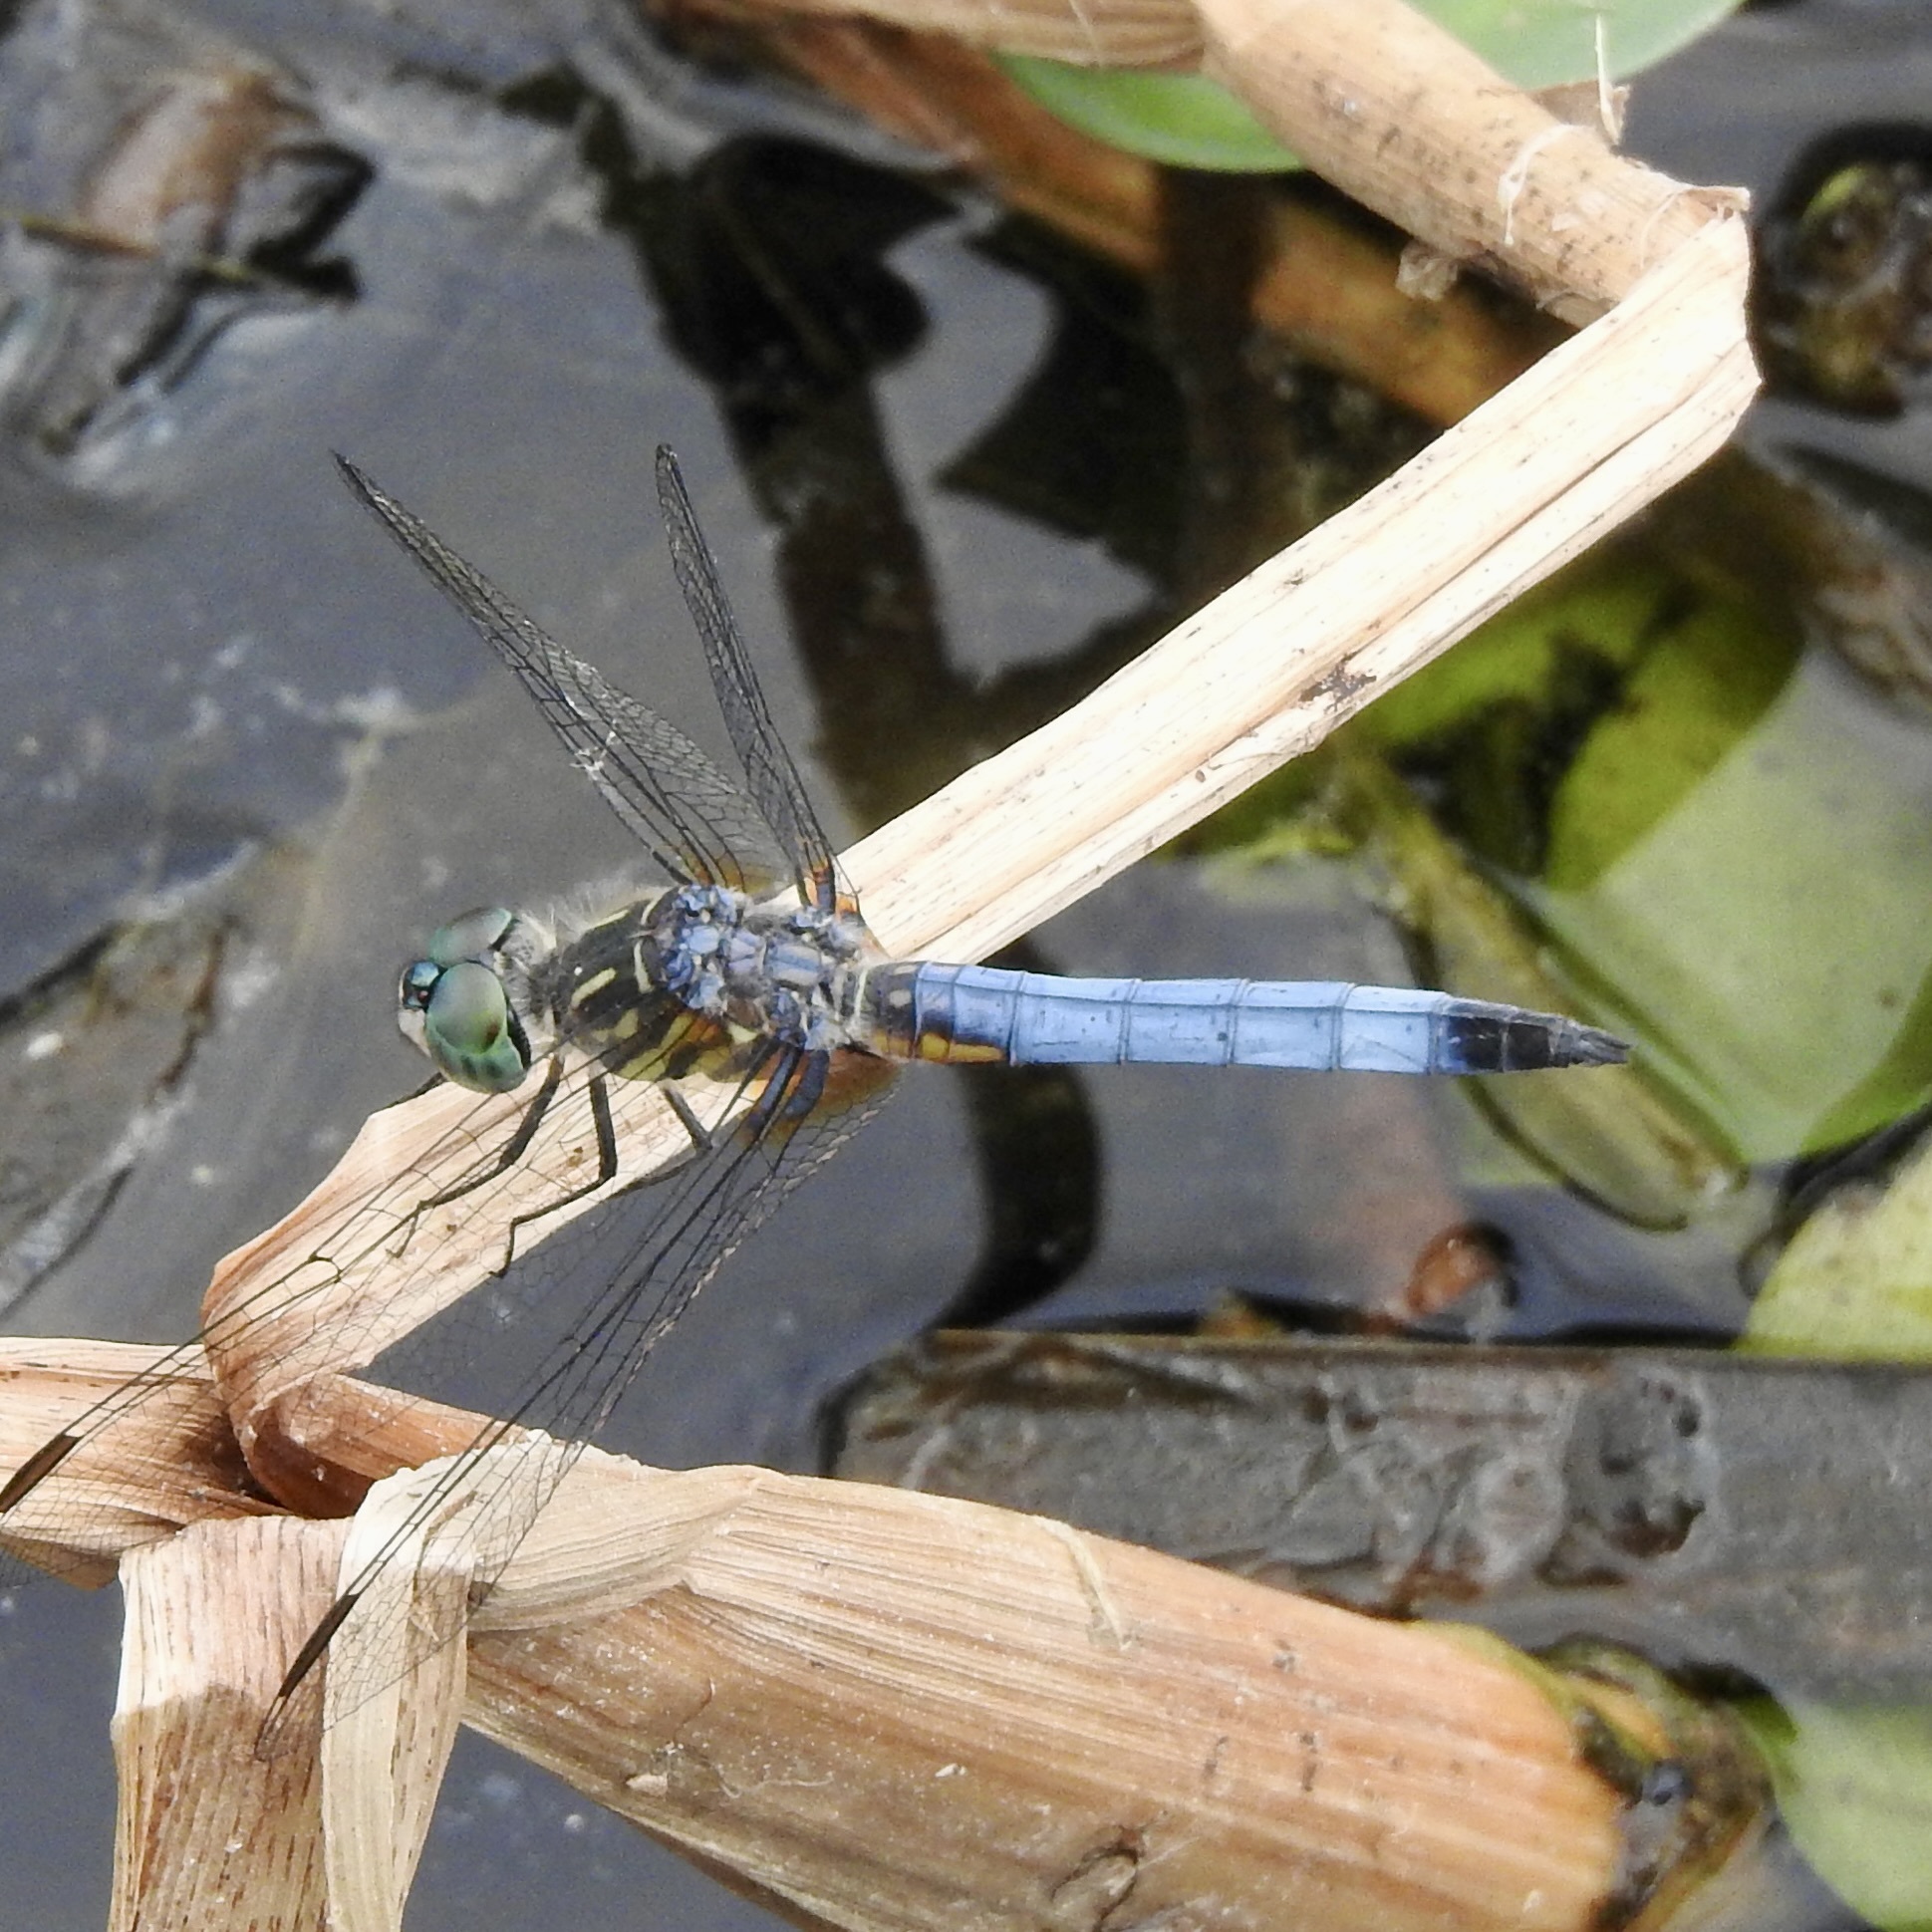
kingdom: Animalia
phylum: Arthropoda
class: Insecta
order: Odonata
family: Libellulidae
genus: Pachydiplax
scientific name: Pachydiplax longipennis
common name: Blue dasher
